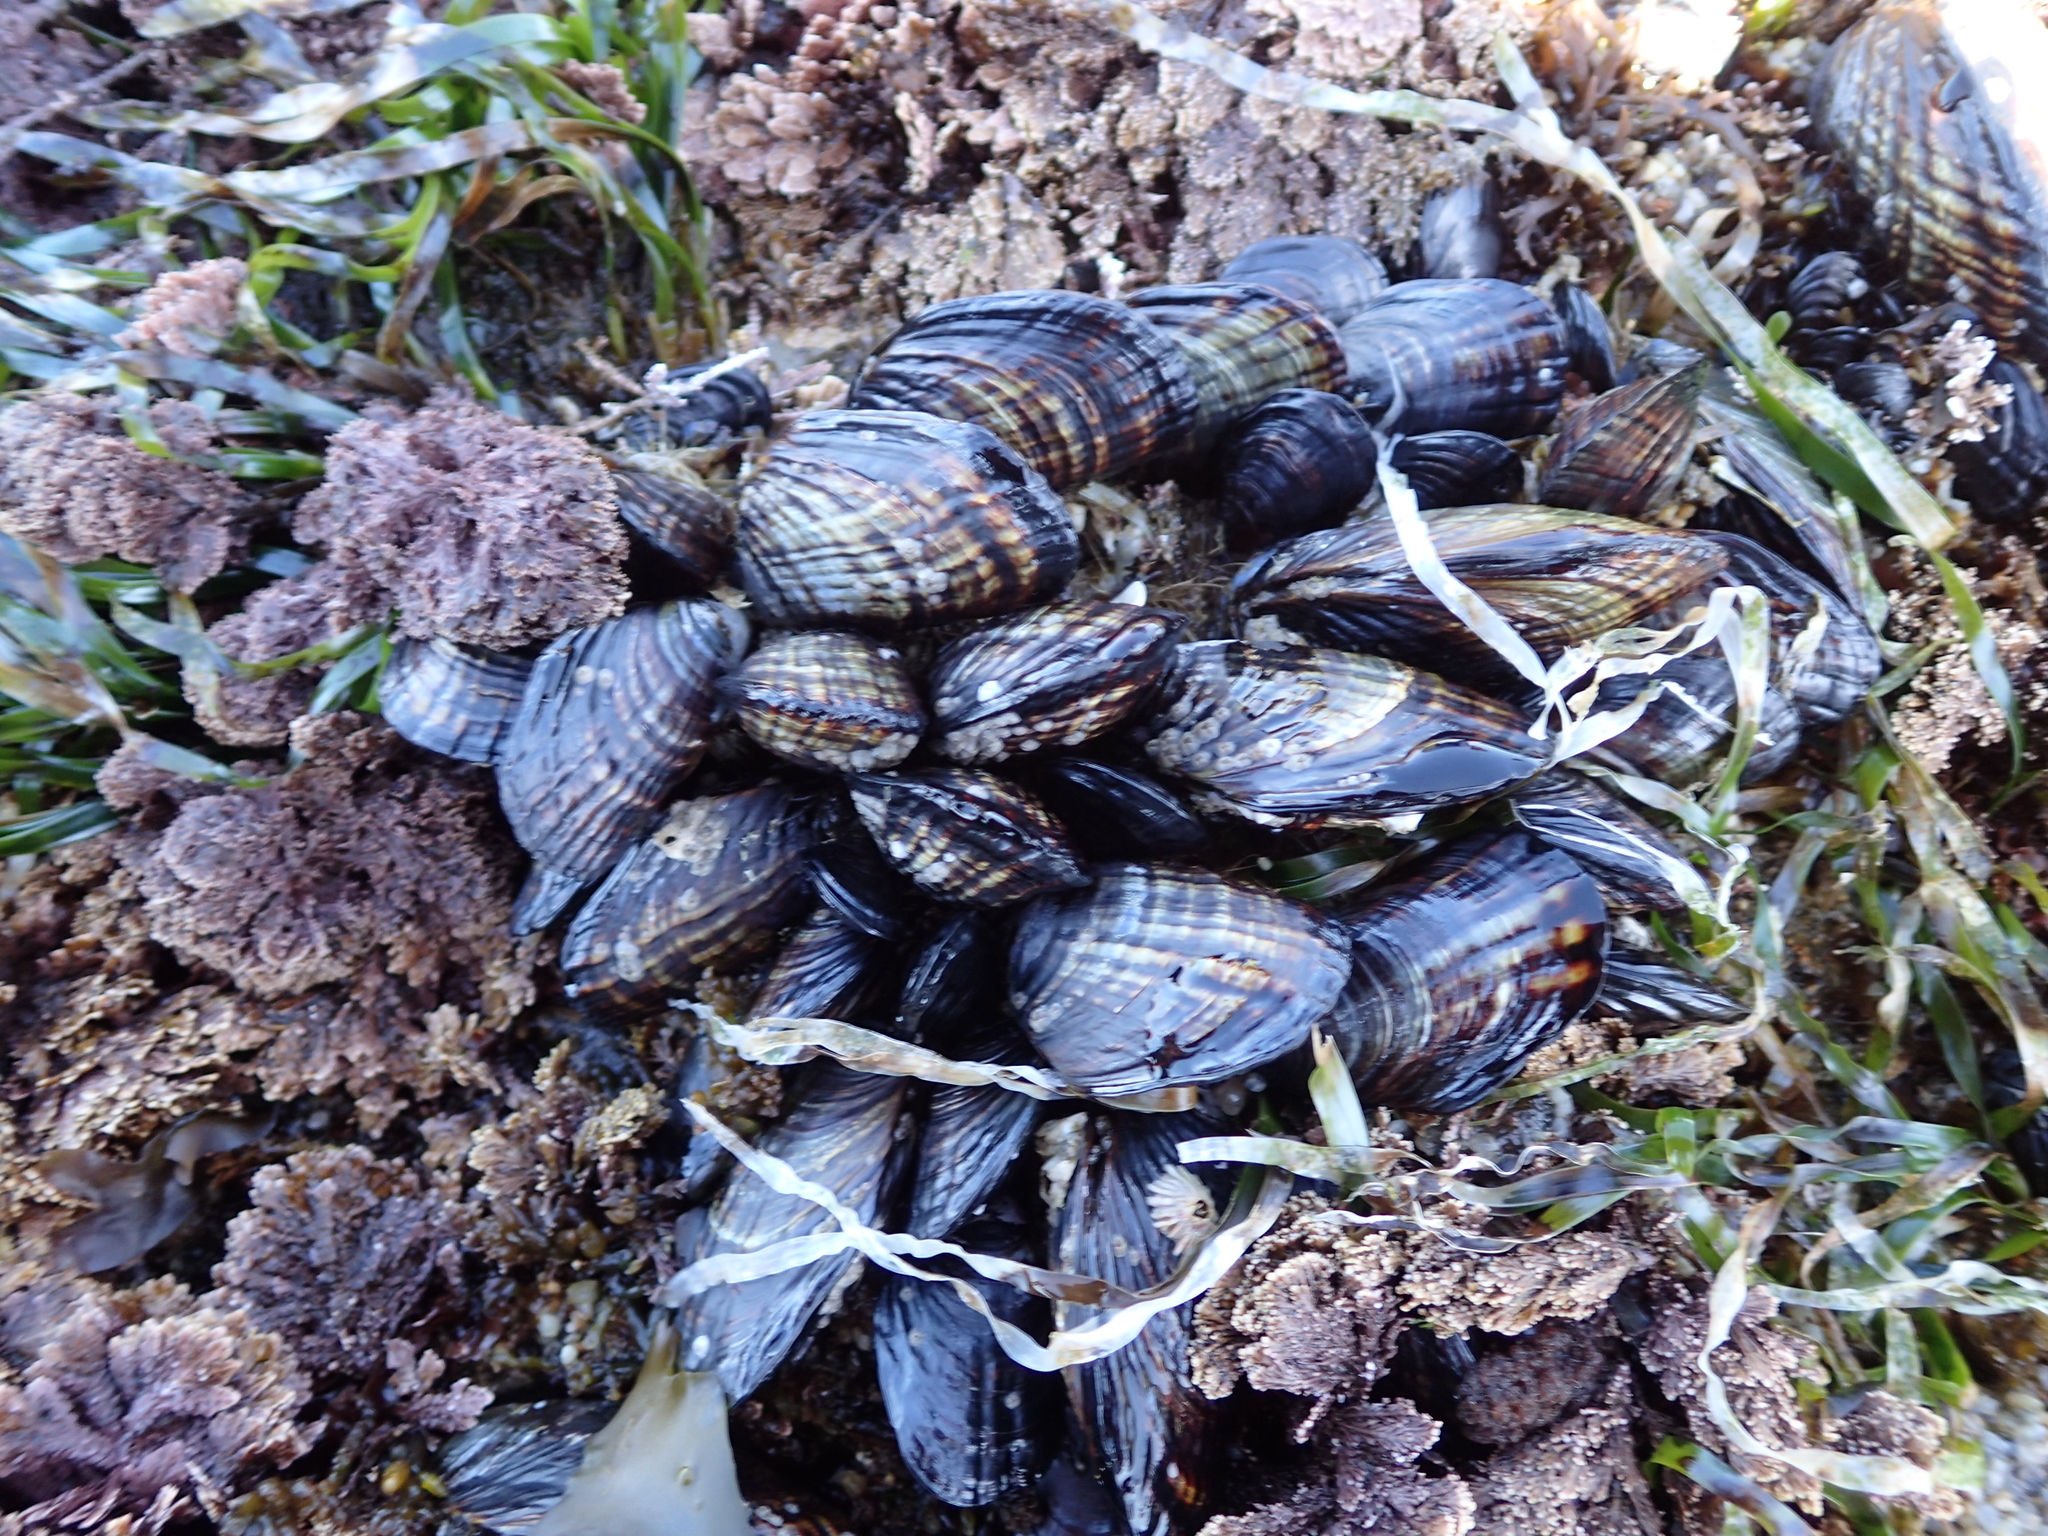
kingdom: Animalia
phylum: Mollusca
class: Bivalvia
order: Mytilida
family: Mytilidae
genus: Mytilus
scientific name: Mytilus californianus
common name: California mussel
